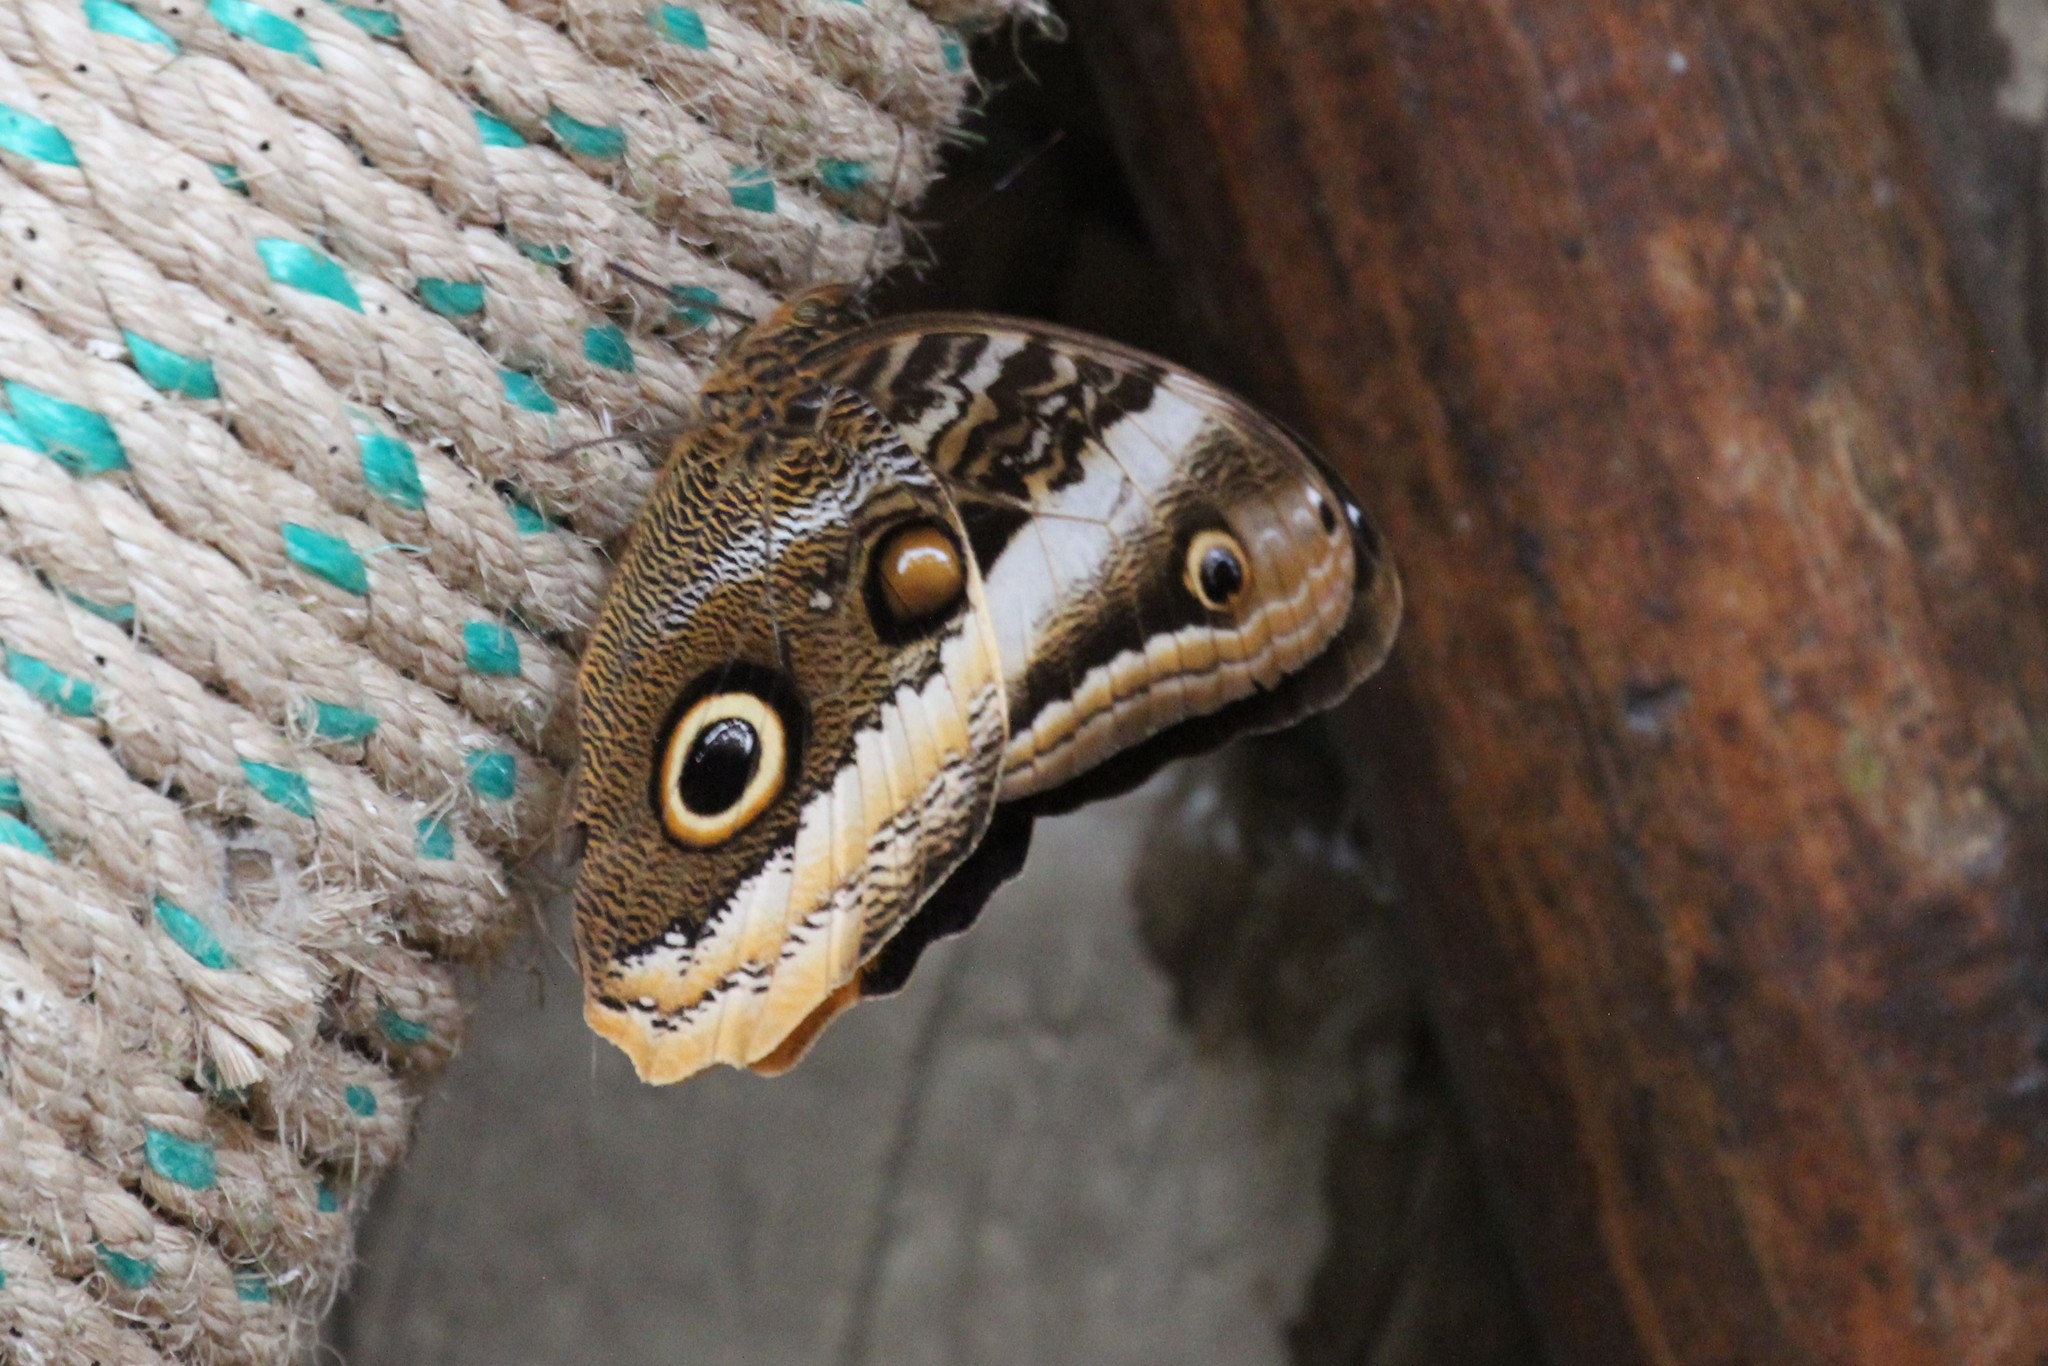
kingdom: Animalia
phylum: Arthropoda
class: Insecta
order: Lepidoptera
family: Nymphalidae
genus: Caligo
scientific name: Caligo atreus
